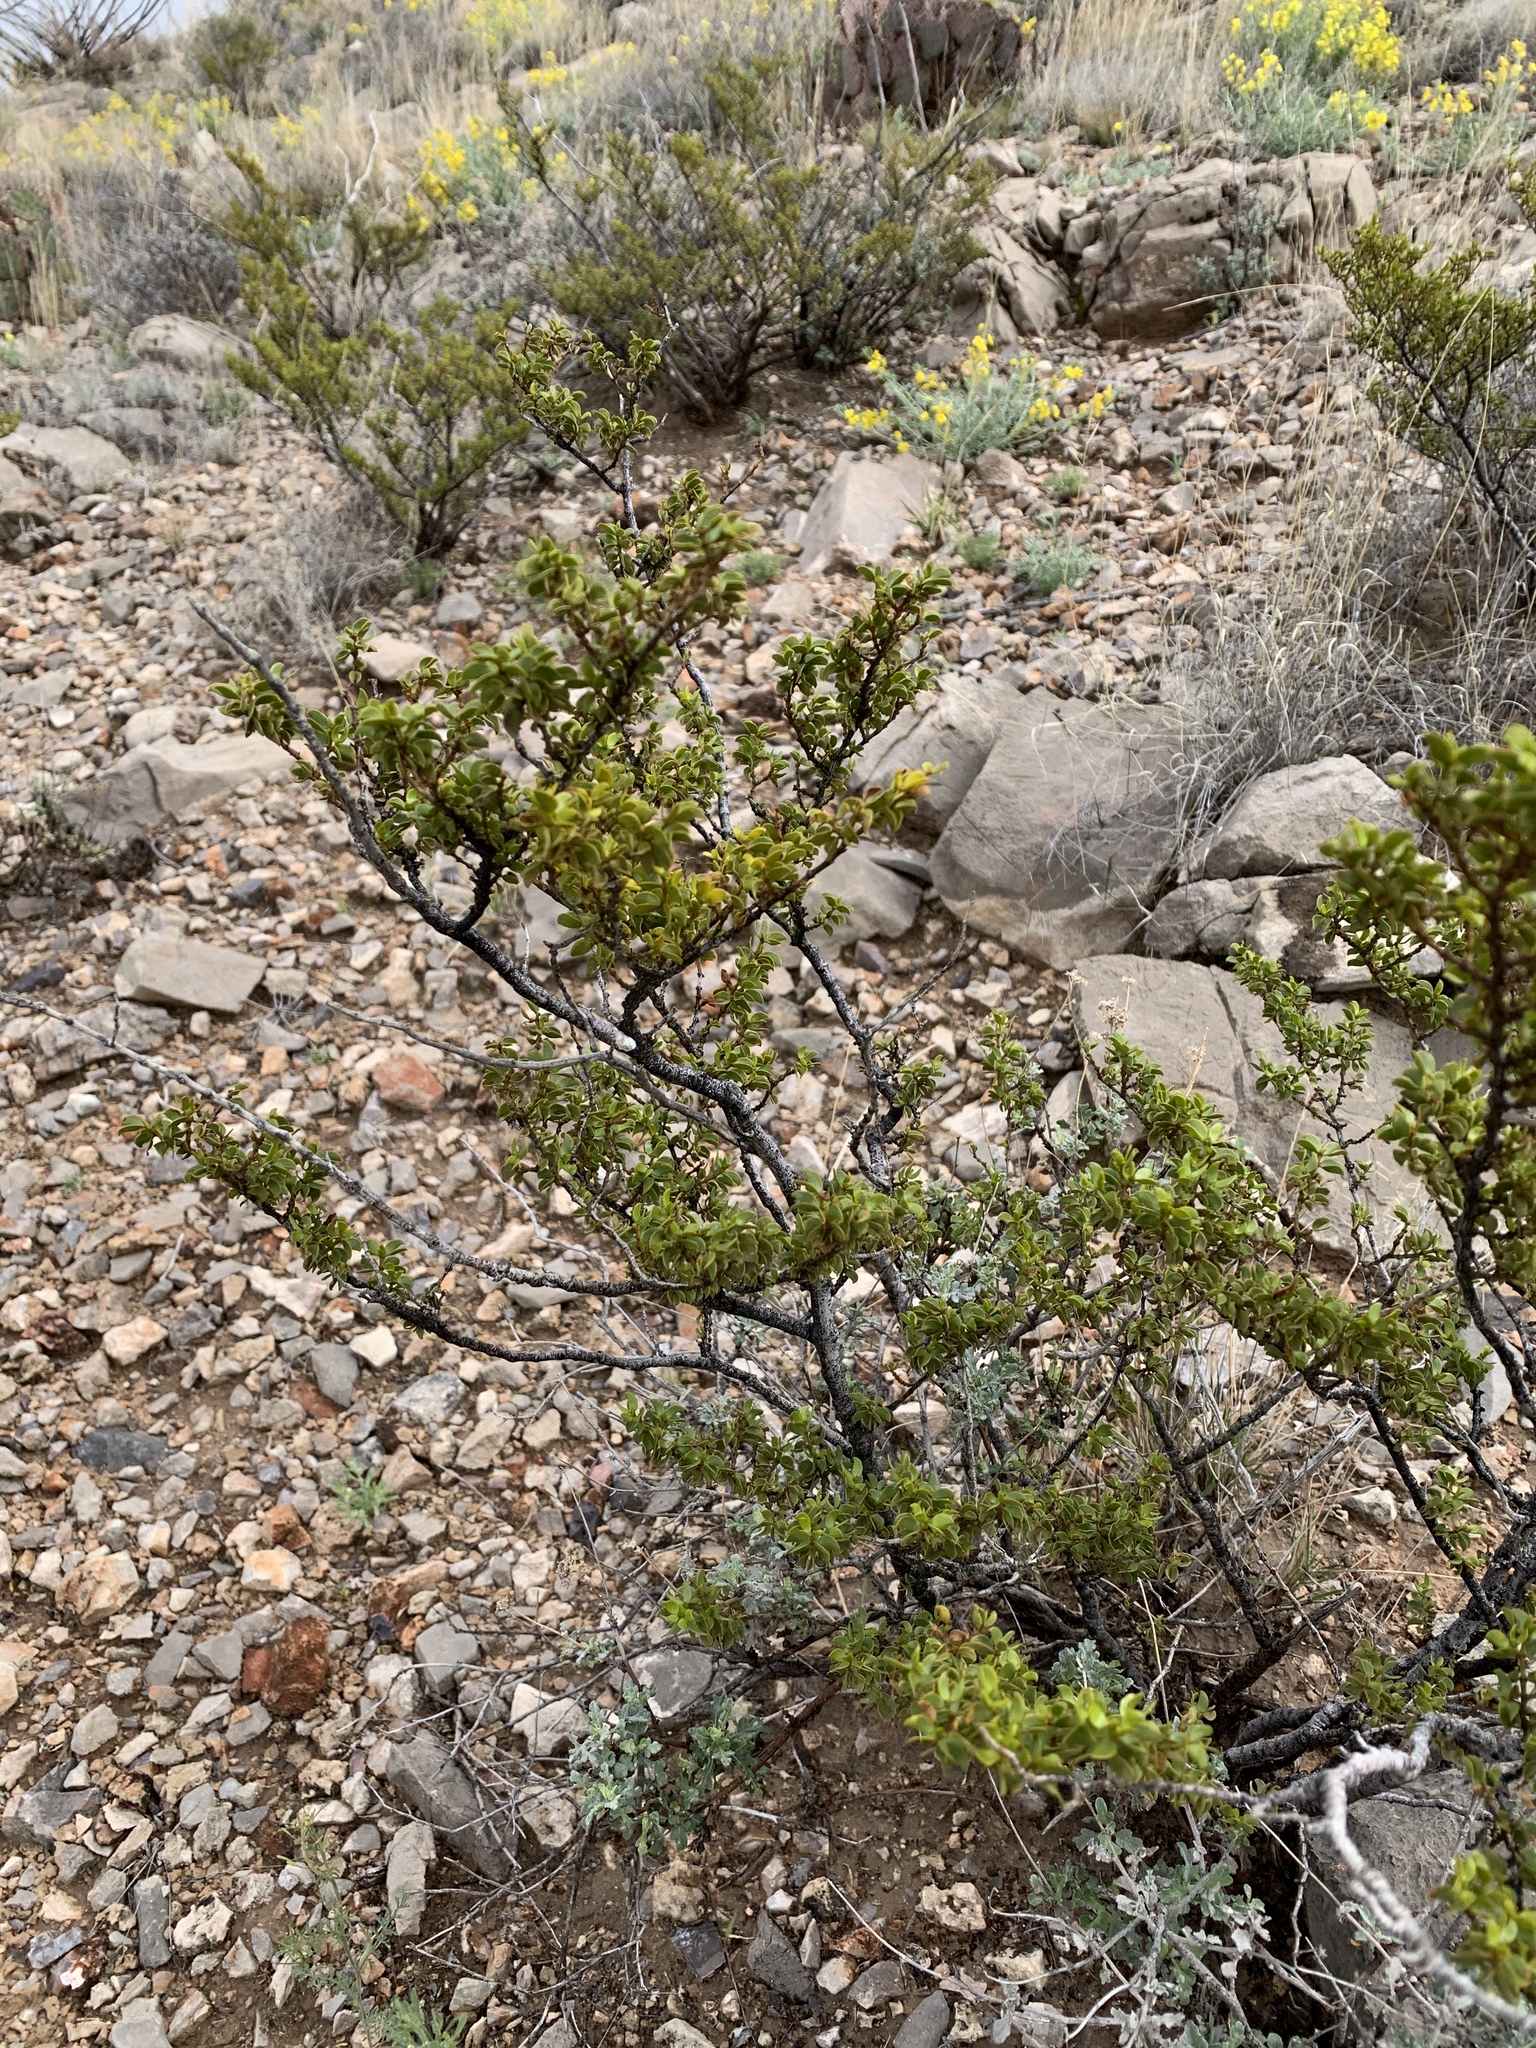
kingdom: Plantae
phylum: Tracheophyta
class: Magnoliopsida
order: Zygophyllales
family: Zygophyllaceae
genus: Larrea
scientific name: Larrea tridentata
